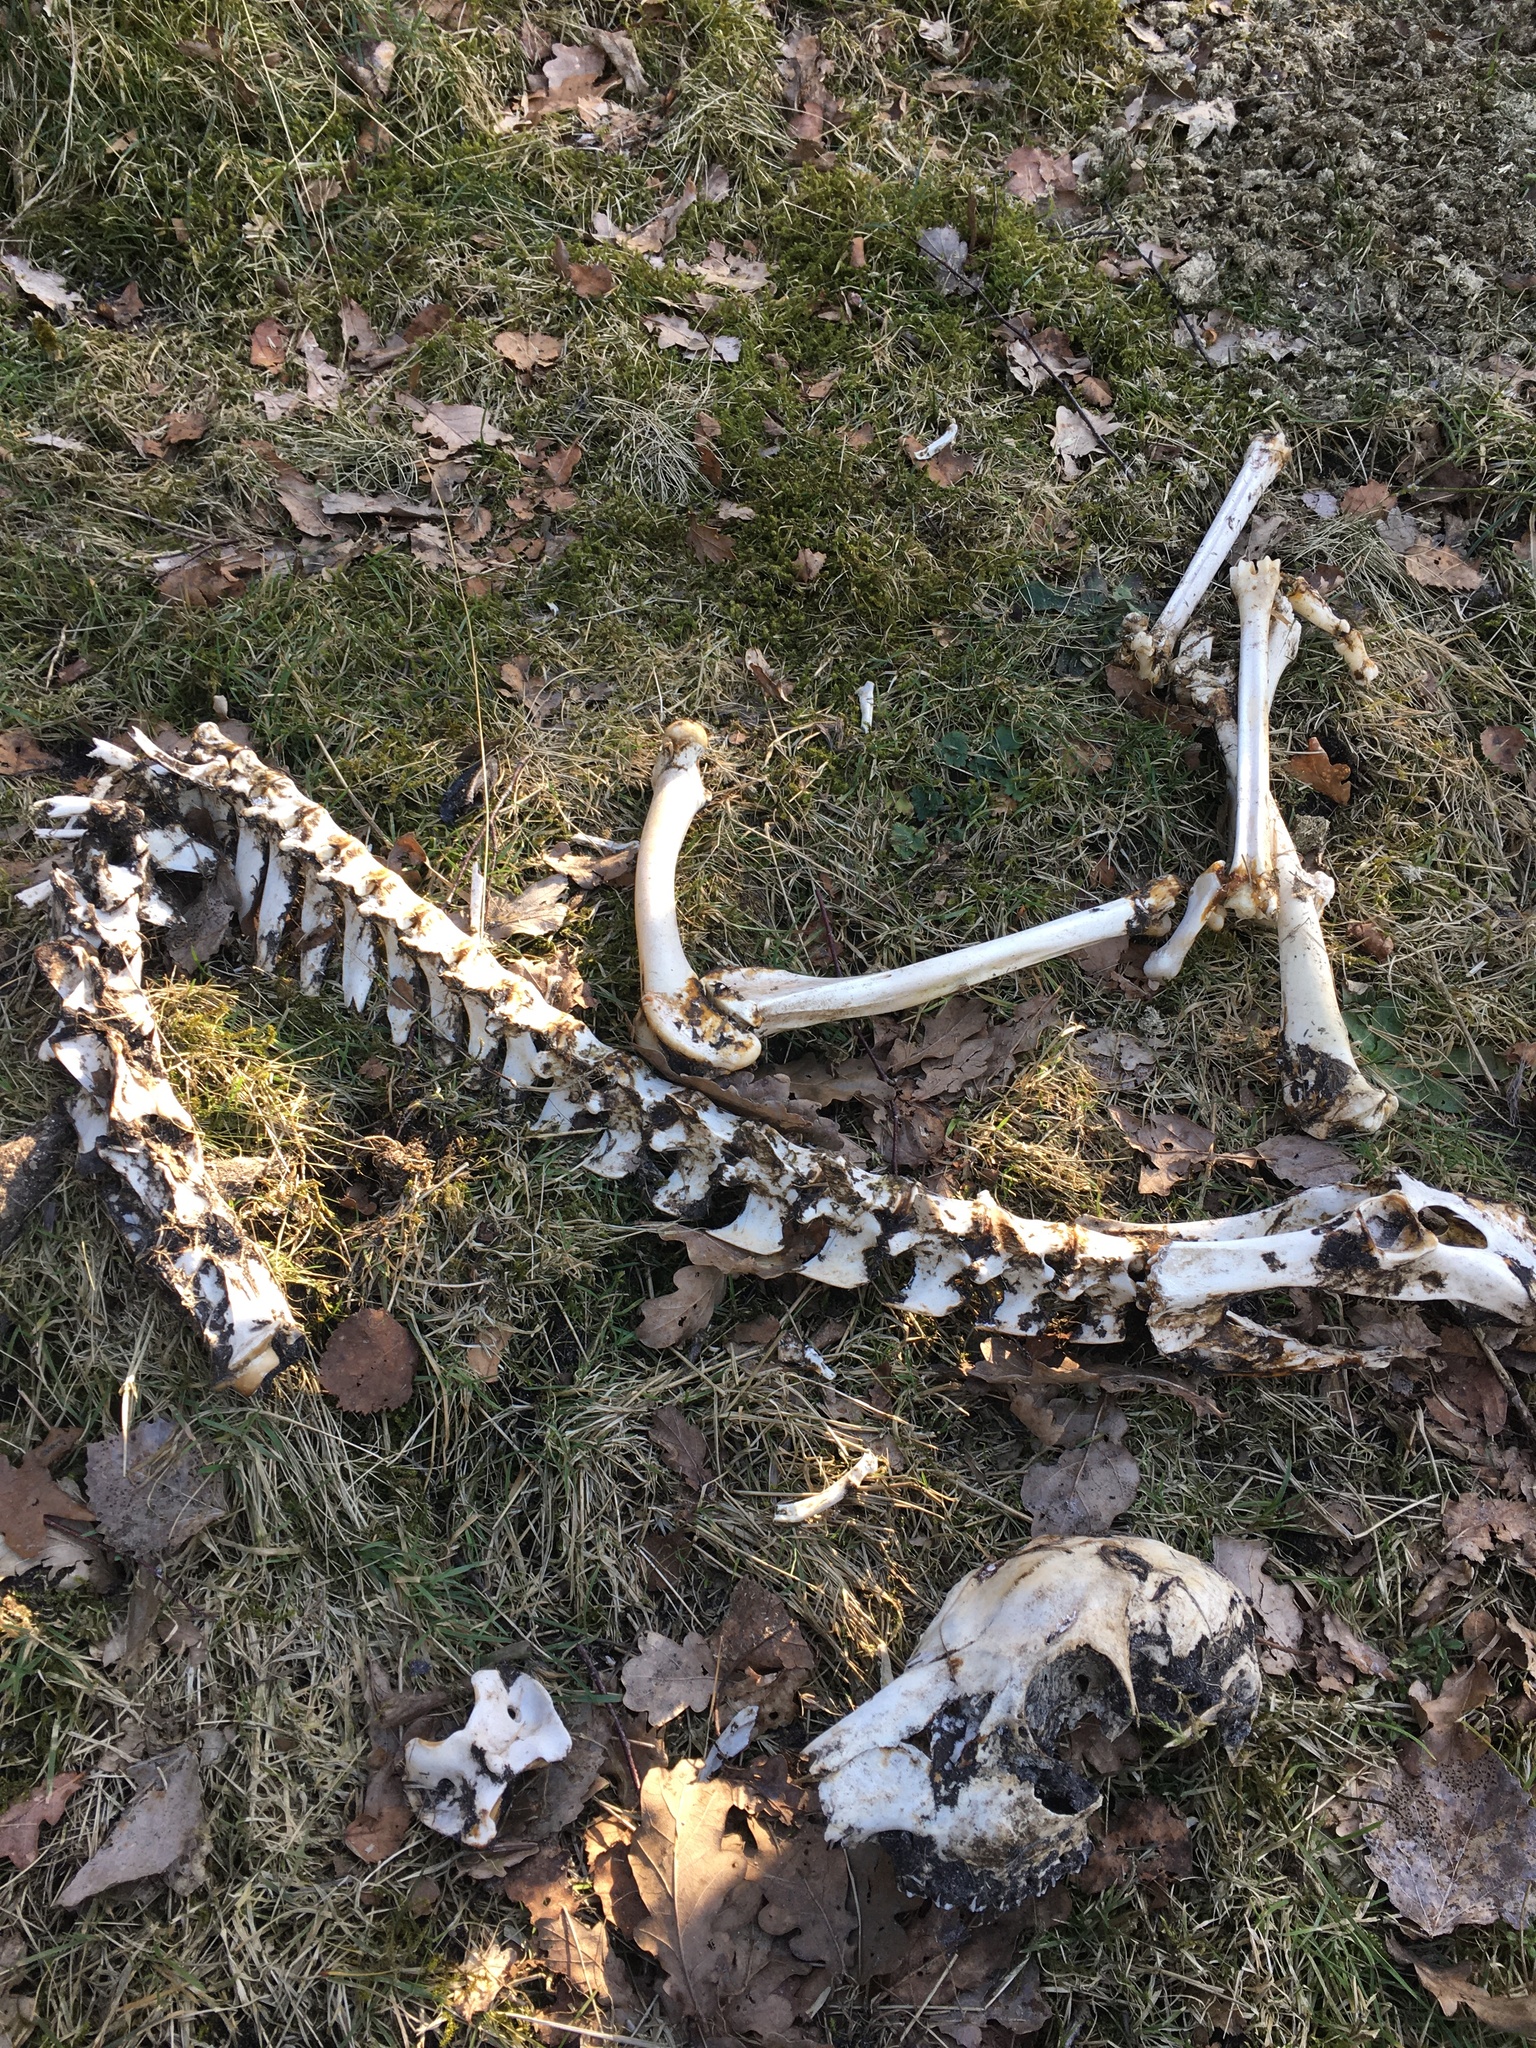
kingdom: Animalia
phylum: Chordata
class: Mammalia
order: Artiodactyla
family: Cervidae
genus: Capreolus
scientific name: Capreolus capreolus
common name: Western roe deer
